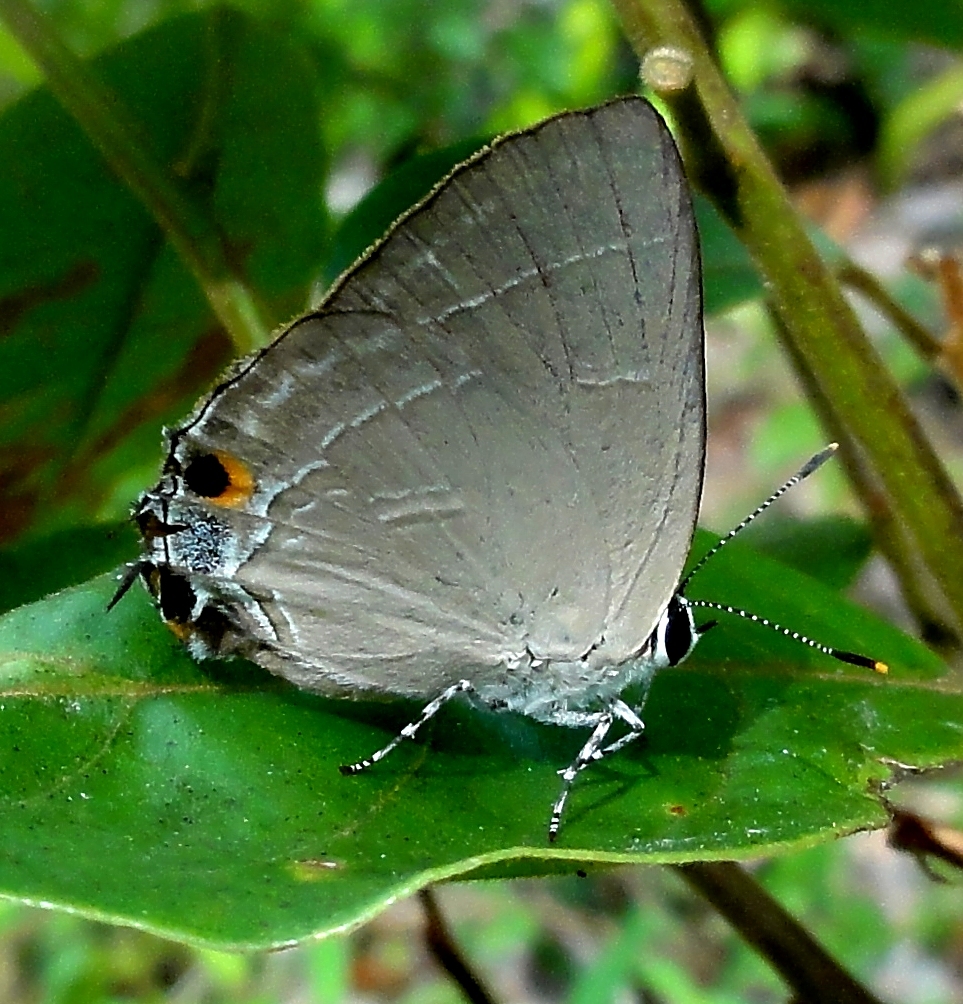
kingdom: Animalia
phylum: Arthropoda
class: Insecta
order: Lepidoptera
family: Lycaenidae
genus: Rapala
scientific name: Rapala iarbas
